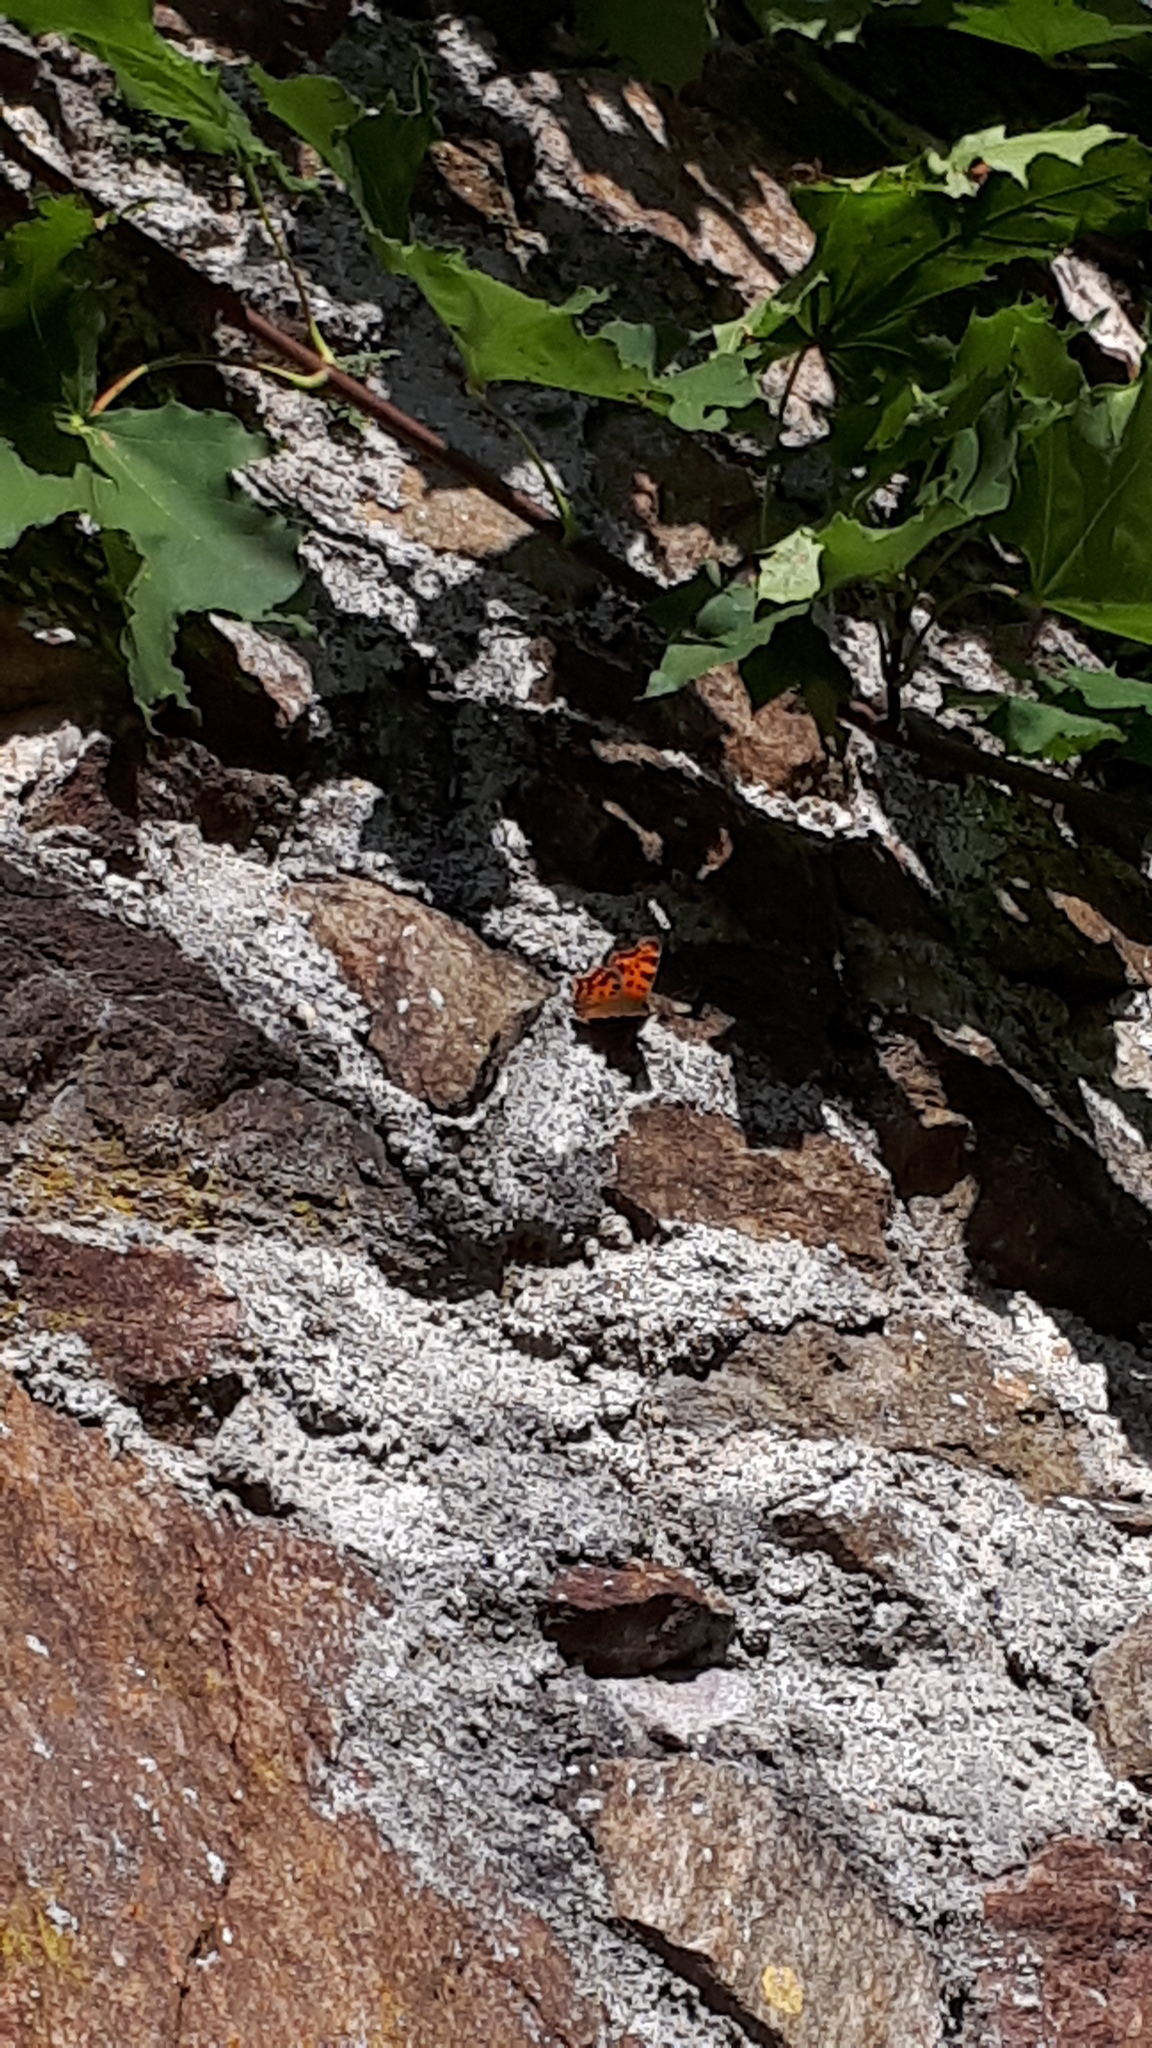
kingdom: Animalia
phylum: Arthropoda
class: Insecta
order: Lepidoptera
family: Nymphalidae
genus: Polygonia
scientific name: Polygonia c-album
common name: Comma
